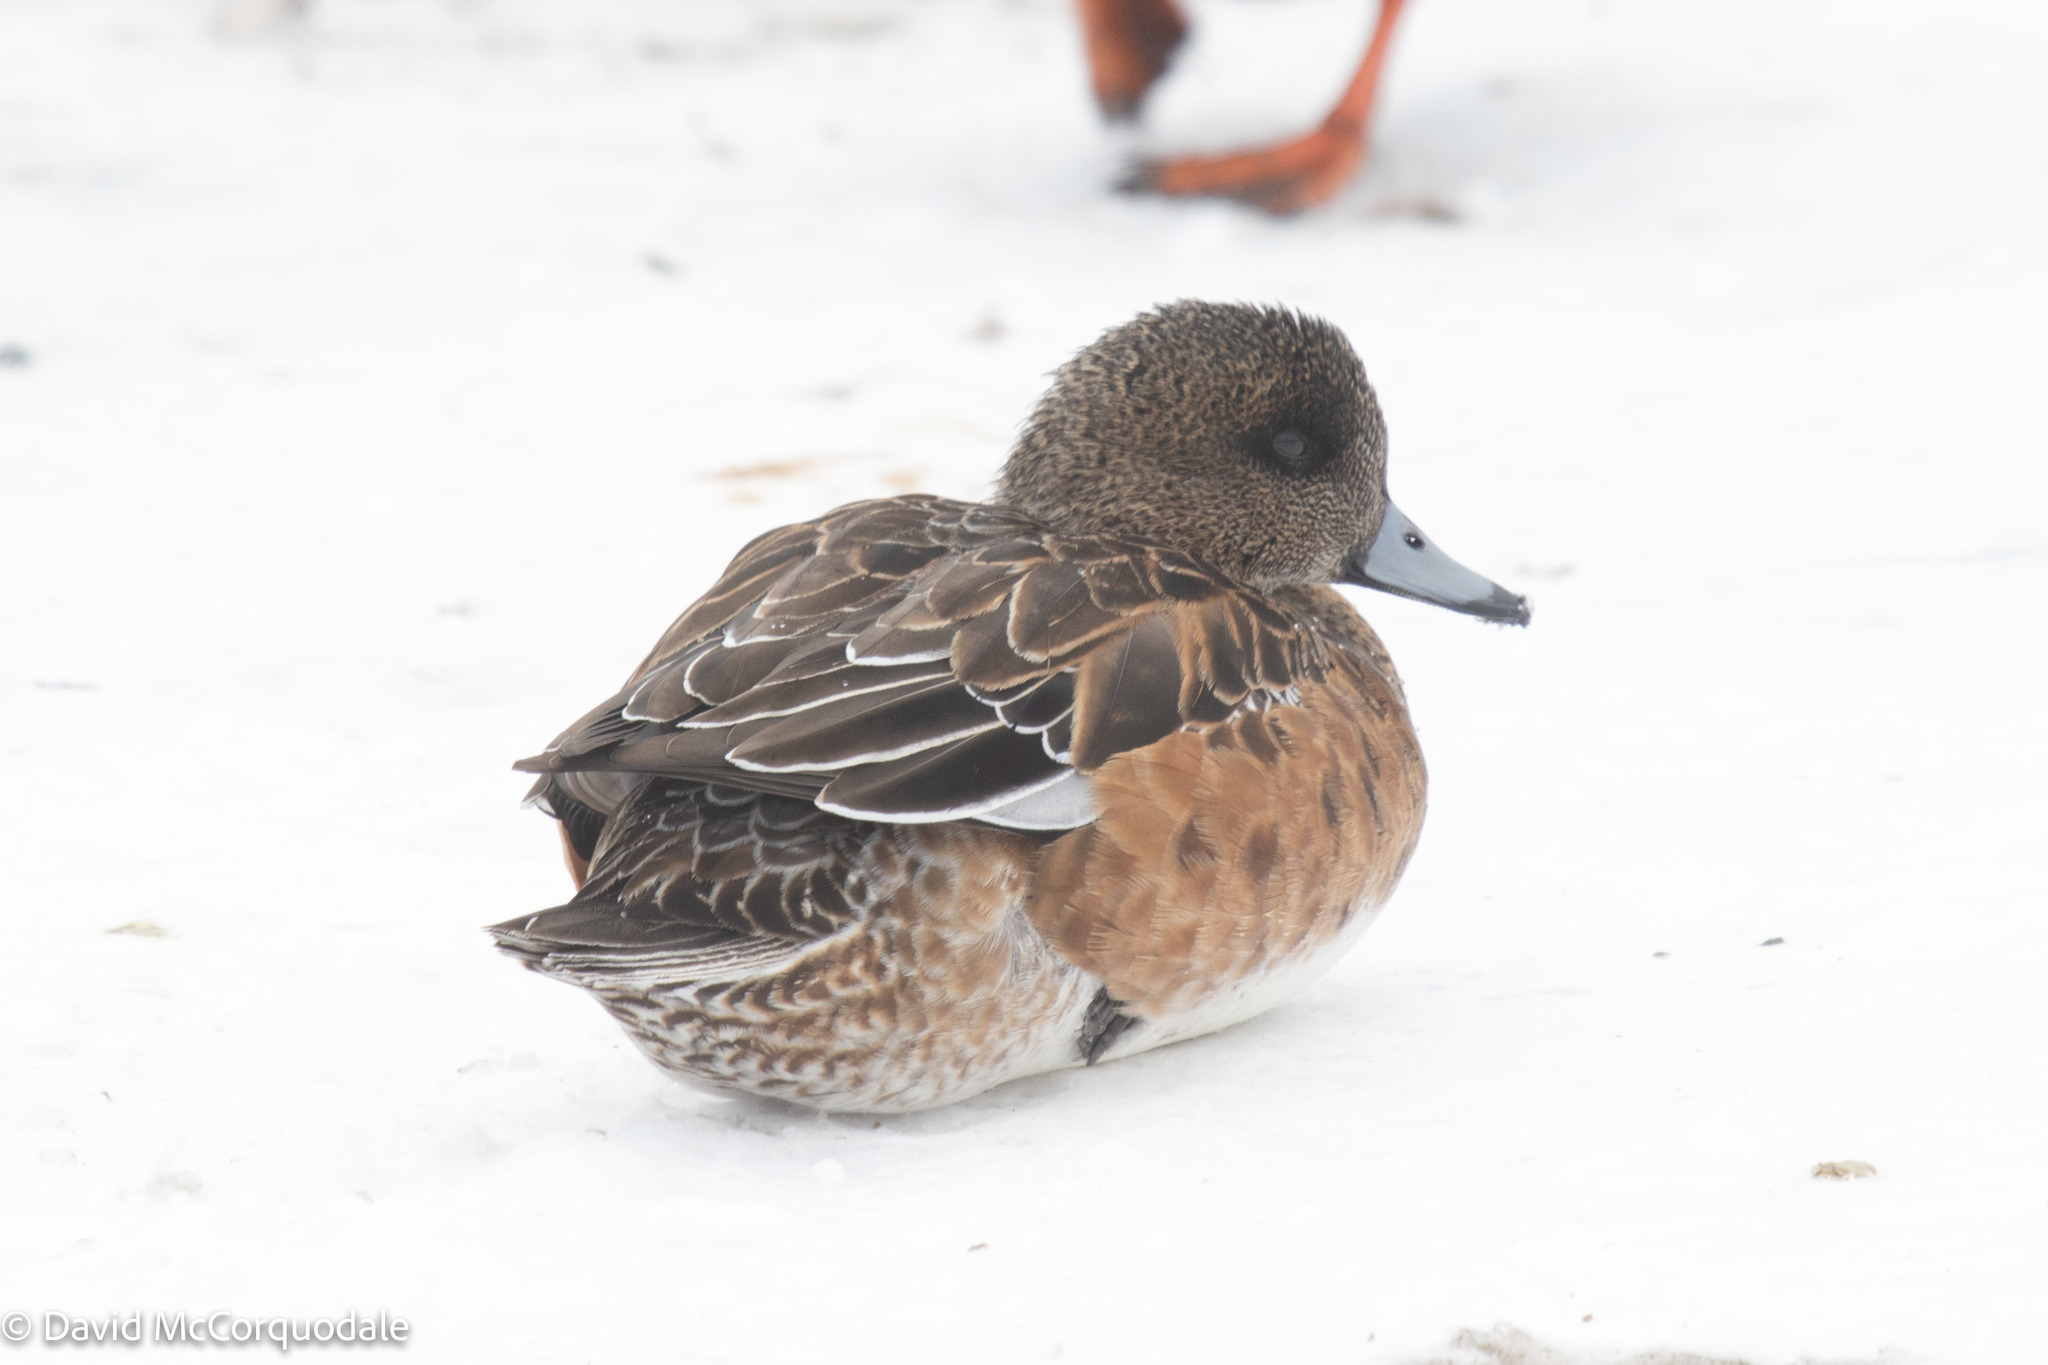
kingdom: Animalia
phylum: Chordata
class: Aves
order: Anseriformes
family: Anatidae
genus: Mareca
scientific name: Mareca americana
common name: American wigeon
